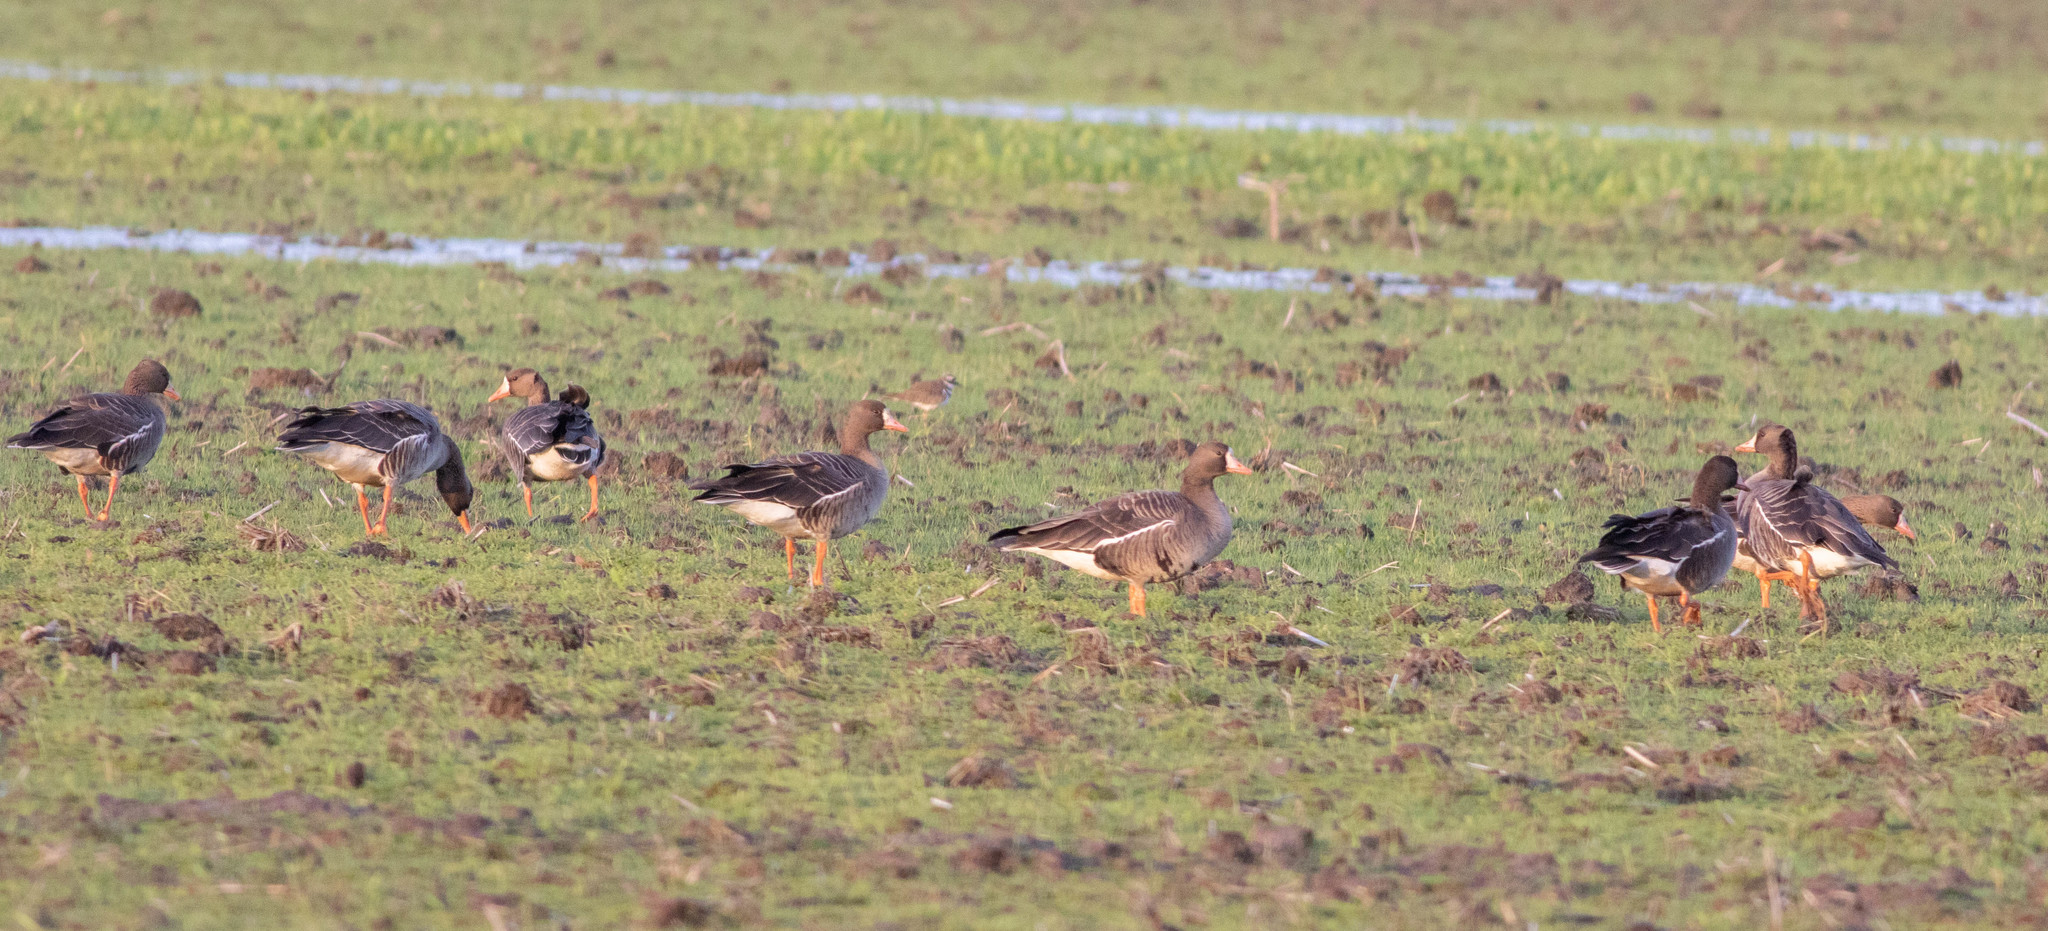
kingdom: Animalia
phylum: Chordata
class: Aves
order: Anseriformes
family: Anatidae
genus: Anser
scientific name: Anser albifrons
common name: Greater white-fronted goose
